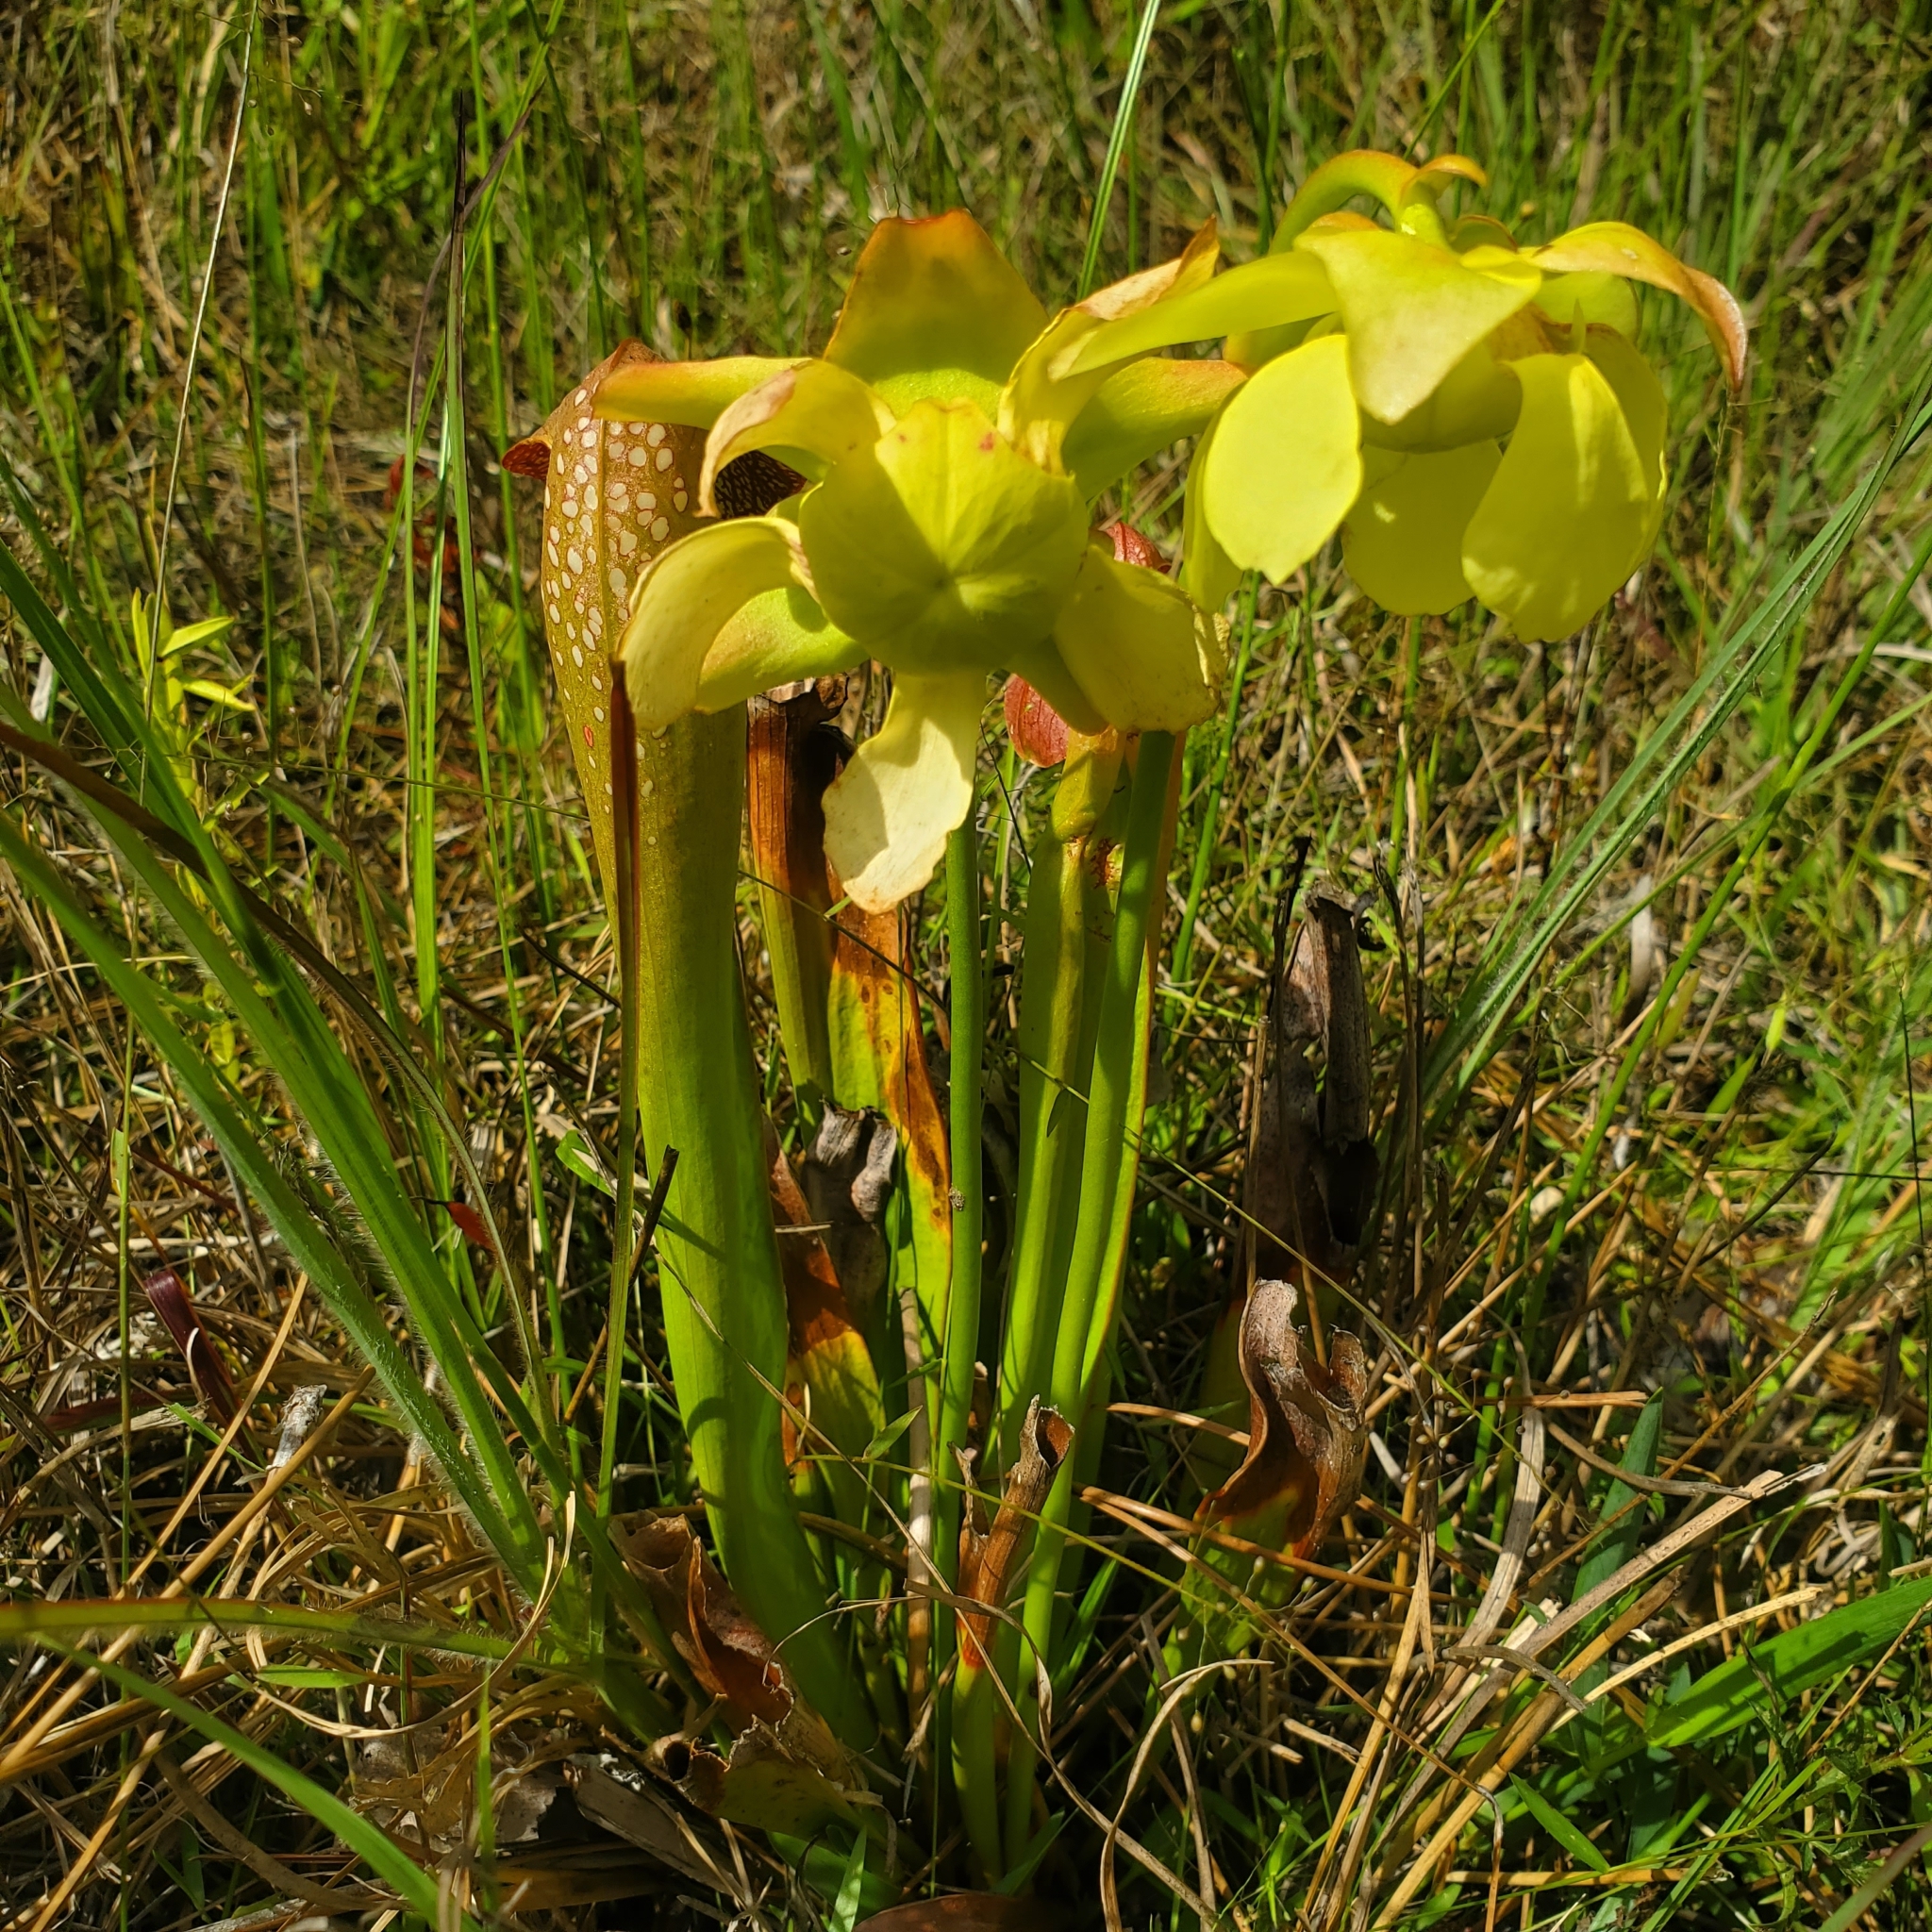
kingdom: Plantae
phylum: Tracheophyta
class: Magnoliopsida
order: Ericales
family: Sarraceniaceae
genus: Sarracenia
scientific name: Sarracenia minor
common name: Rainhat-trumpet
